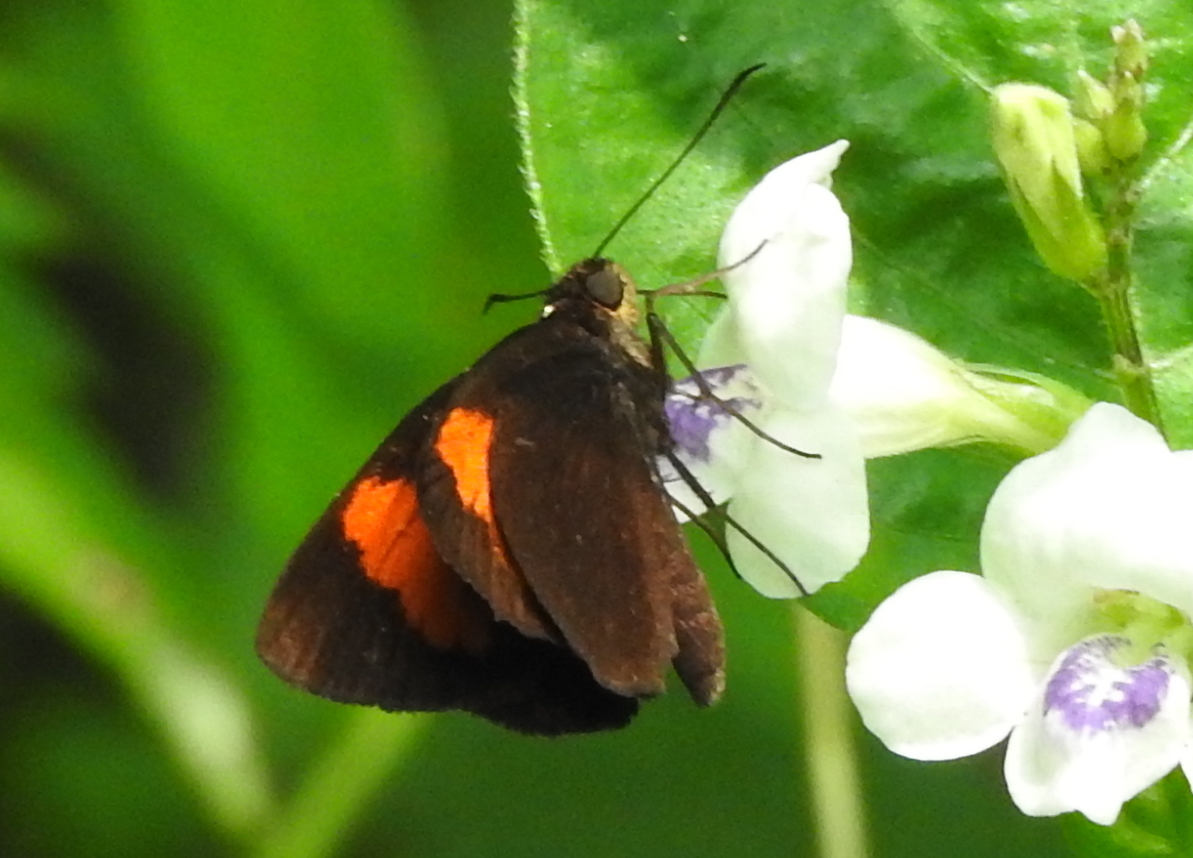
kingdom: Animalia
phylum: Arthropoda
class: Insecta
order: Lepidoptera
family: Hesperiidae
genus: Koruthaialos
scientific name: Koruthaialos sindu
